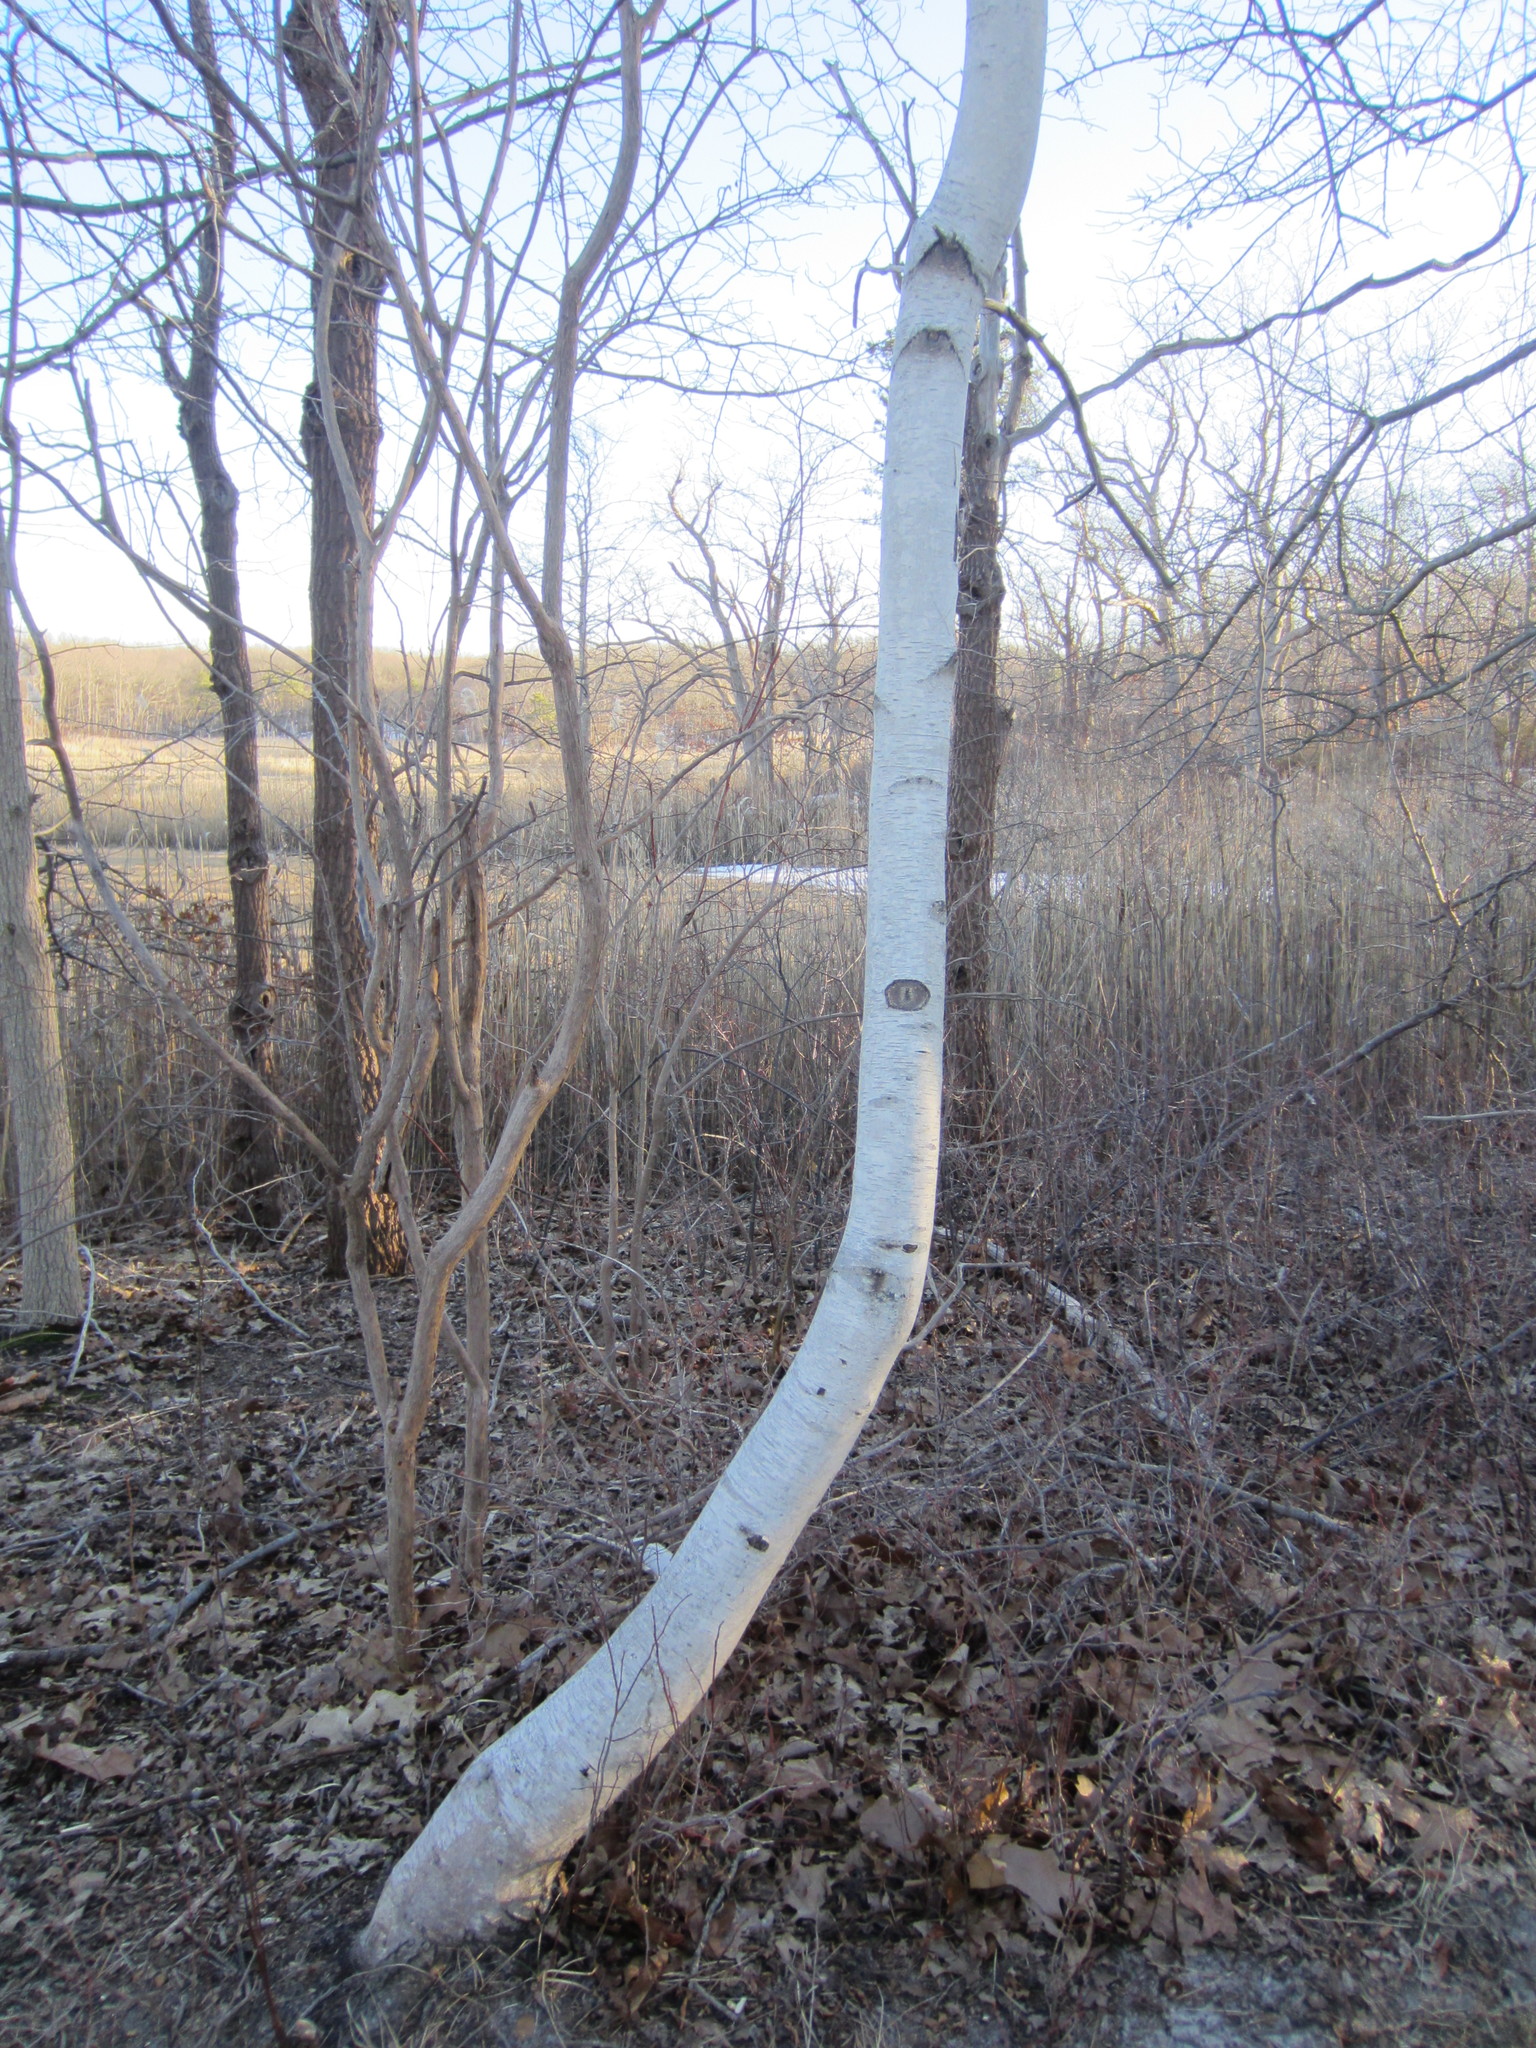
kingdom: Plantae
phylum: Tracheophyta
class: Magnoliopsida
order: Fagales
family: Betulaceae
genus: Betula
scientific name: Betula populifolia
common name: Fire birch
